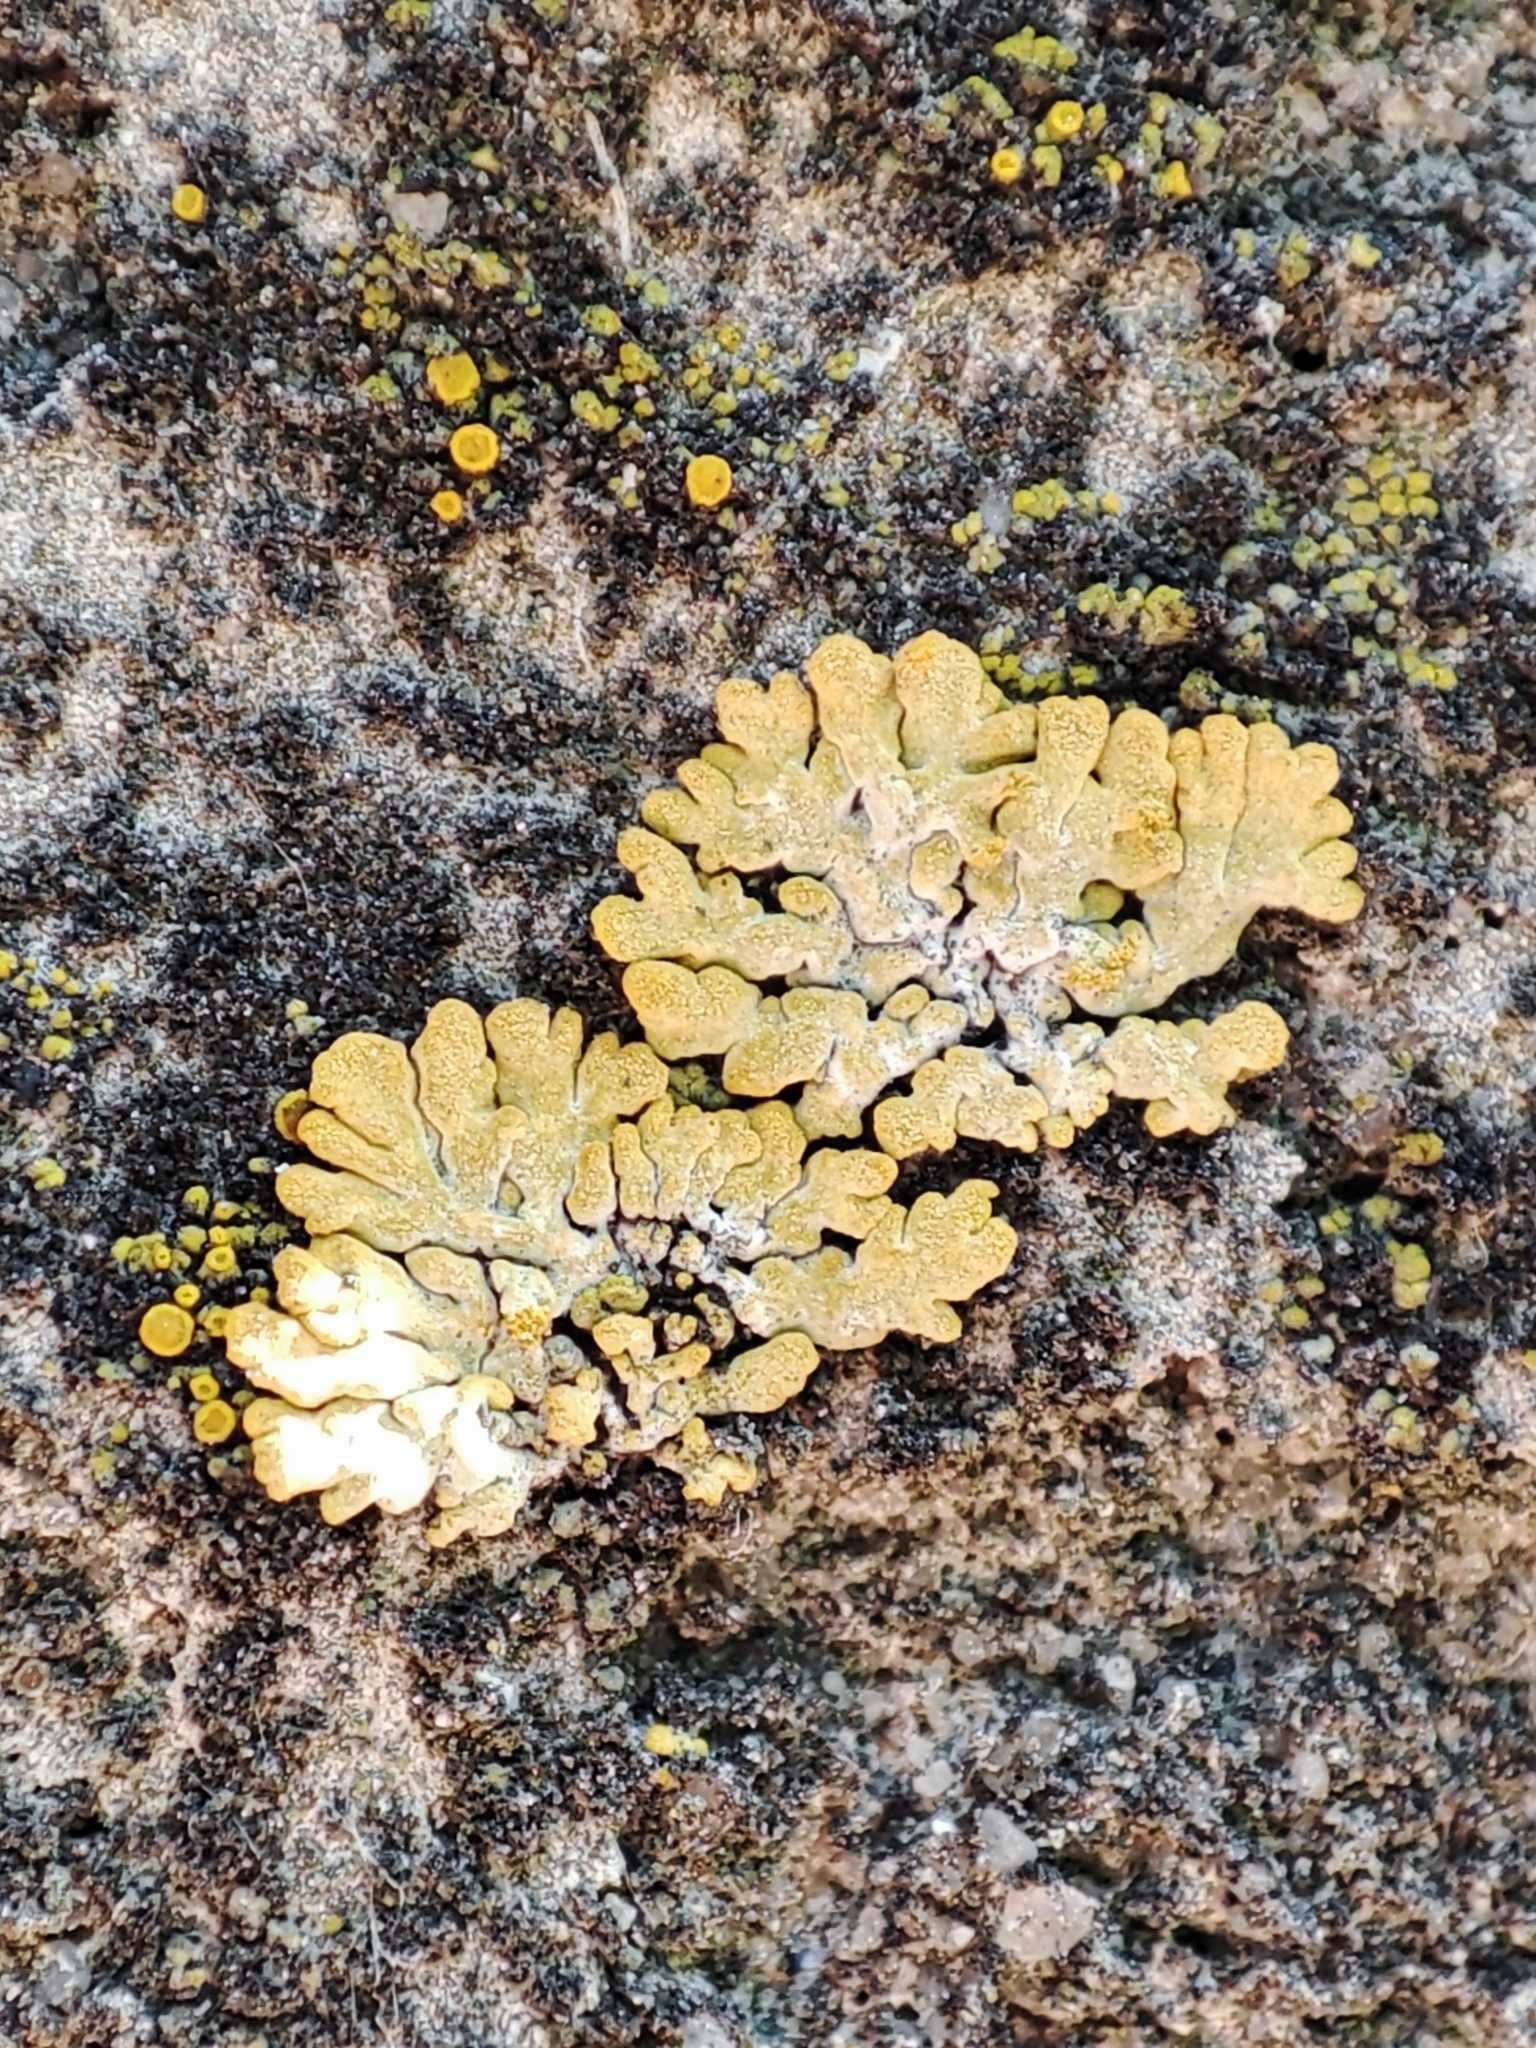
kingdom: Fungi
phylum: Ascomycota
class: Lecanoromycetes
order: Teloschistales
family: Teloschistaceae
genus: Calogaya
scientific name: Calogaya decipiens
